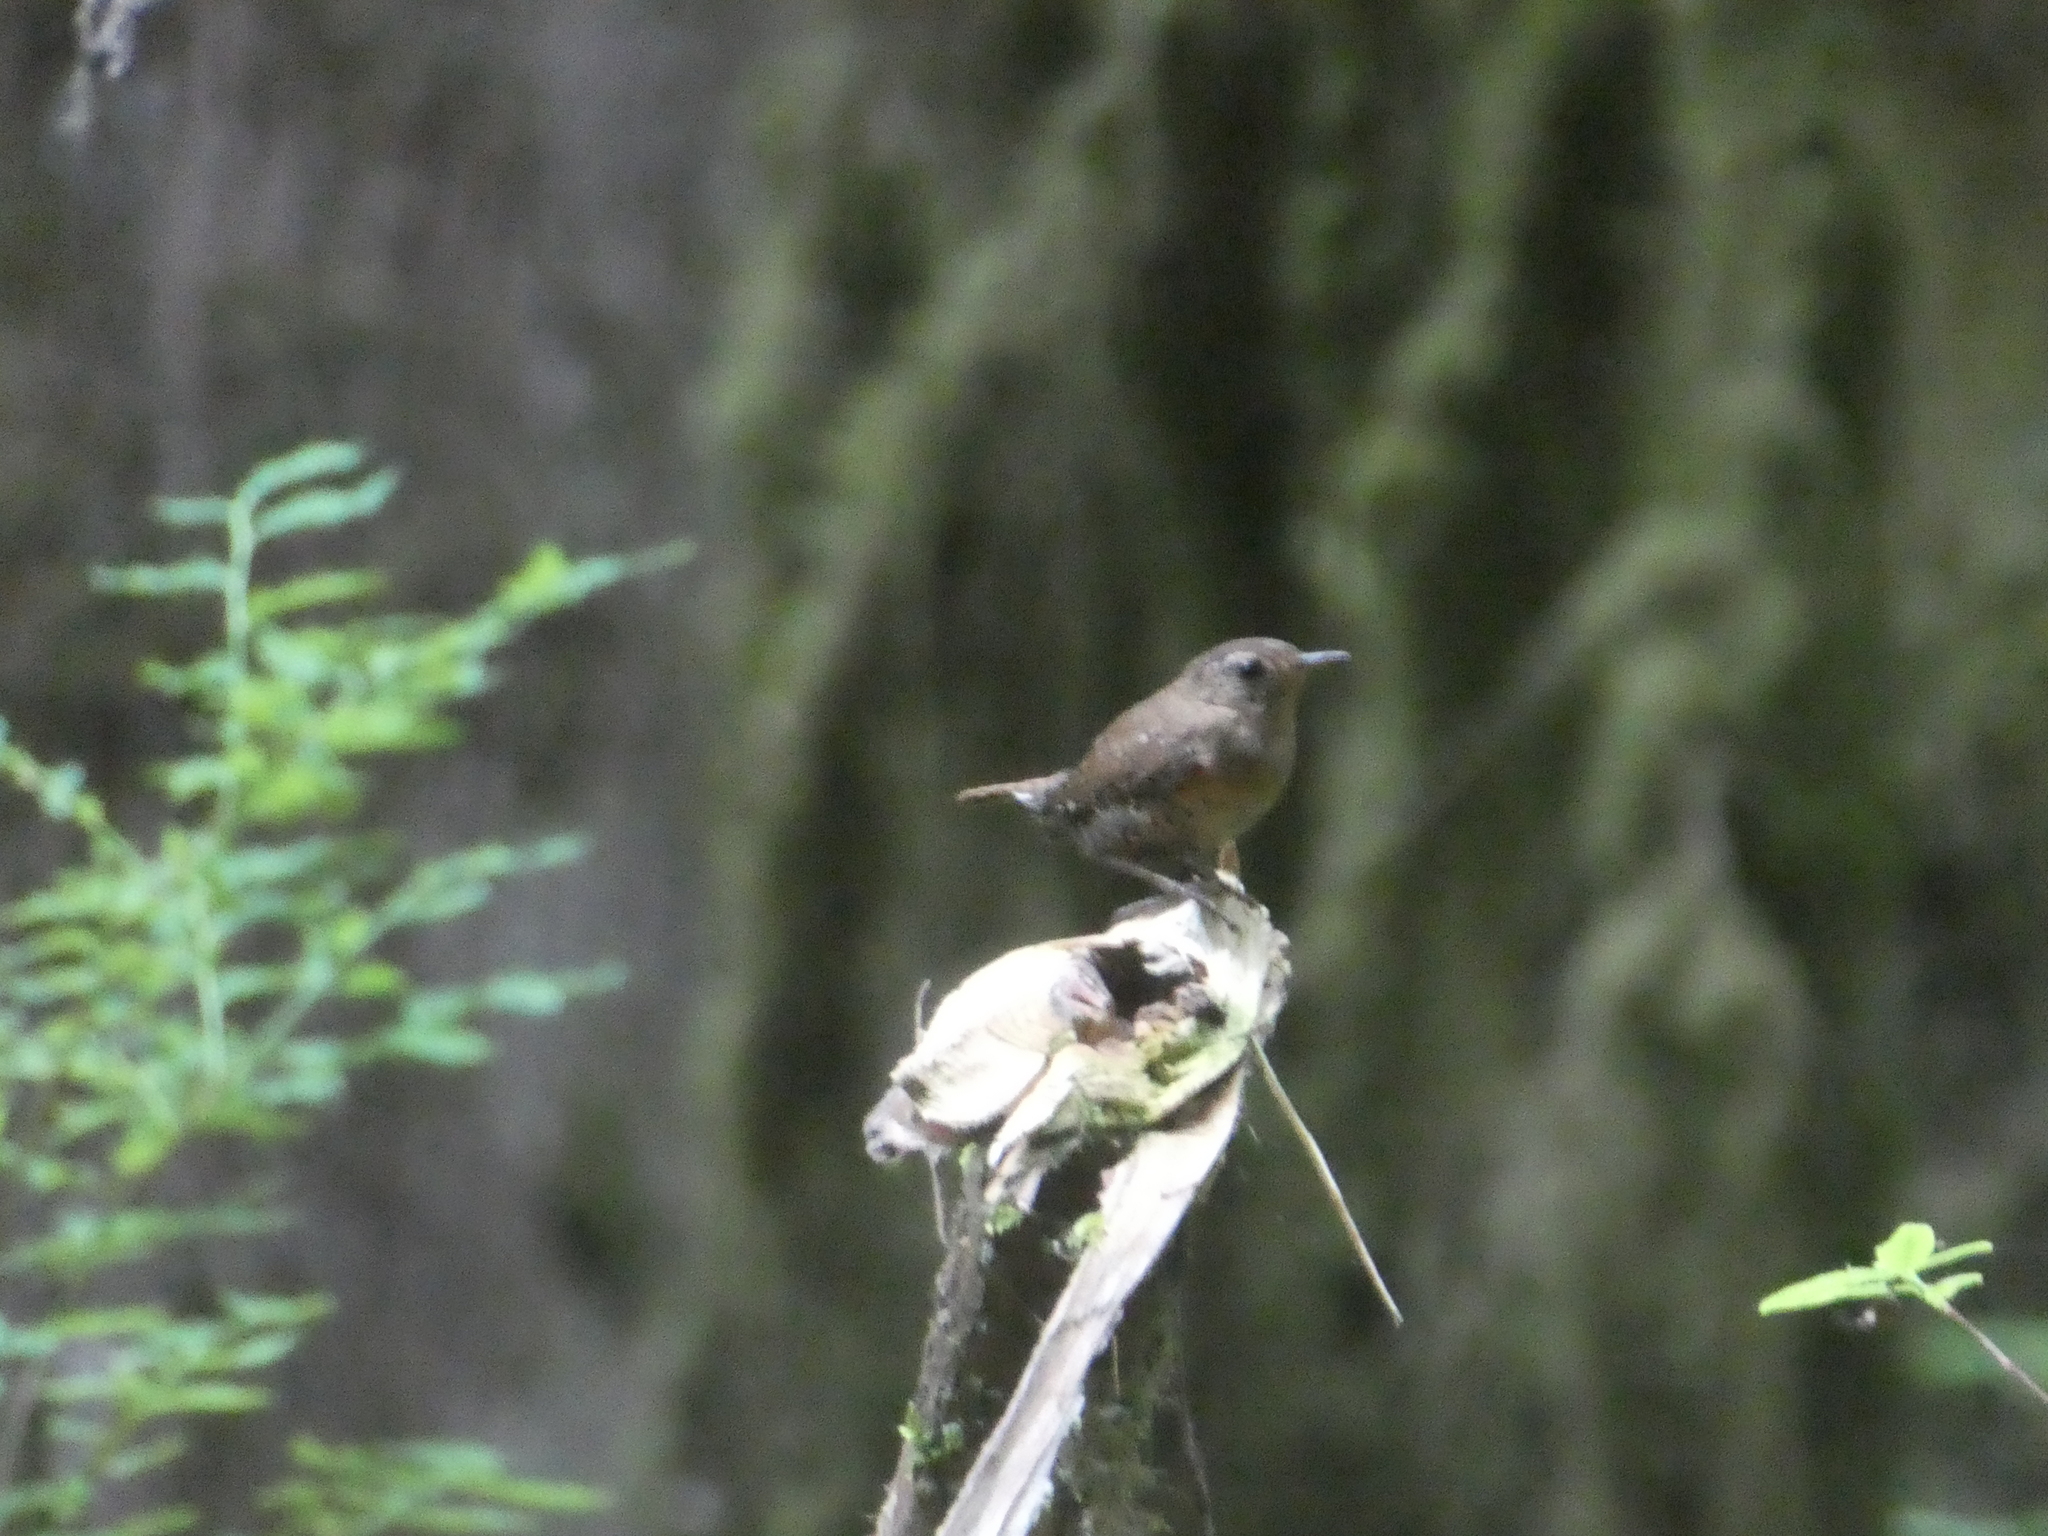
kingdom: Animalia
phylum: Chordata
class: Aves
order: Passeriformes
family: Troglodytidae
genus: Troglodytes
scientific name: Troglodytes pacificus
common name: Pacific wren
